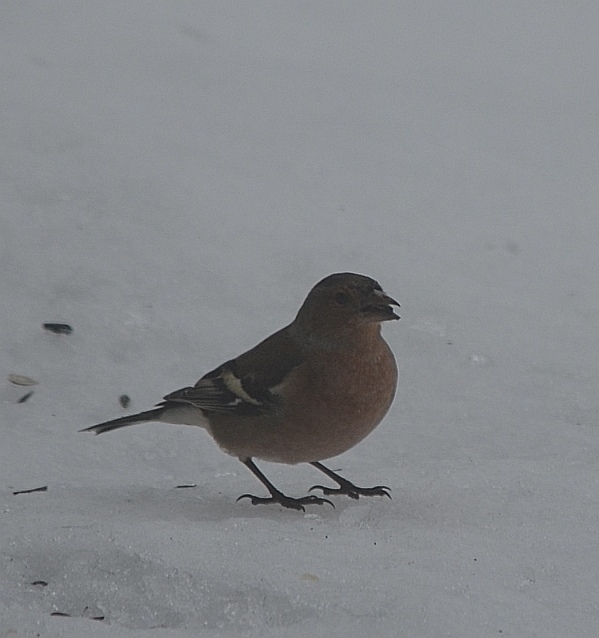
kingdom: Animalia
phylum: Chordata
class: Aves
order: Passeriformes
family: Fringillidae
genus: Fringilla
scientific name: Fringilla coelebs
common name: Common chaffinch
